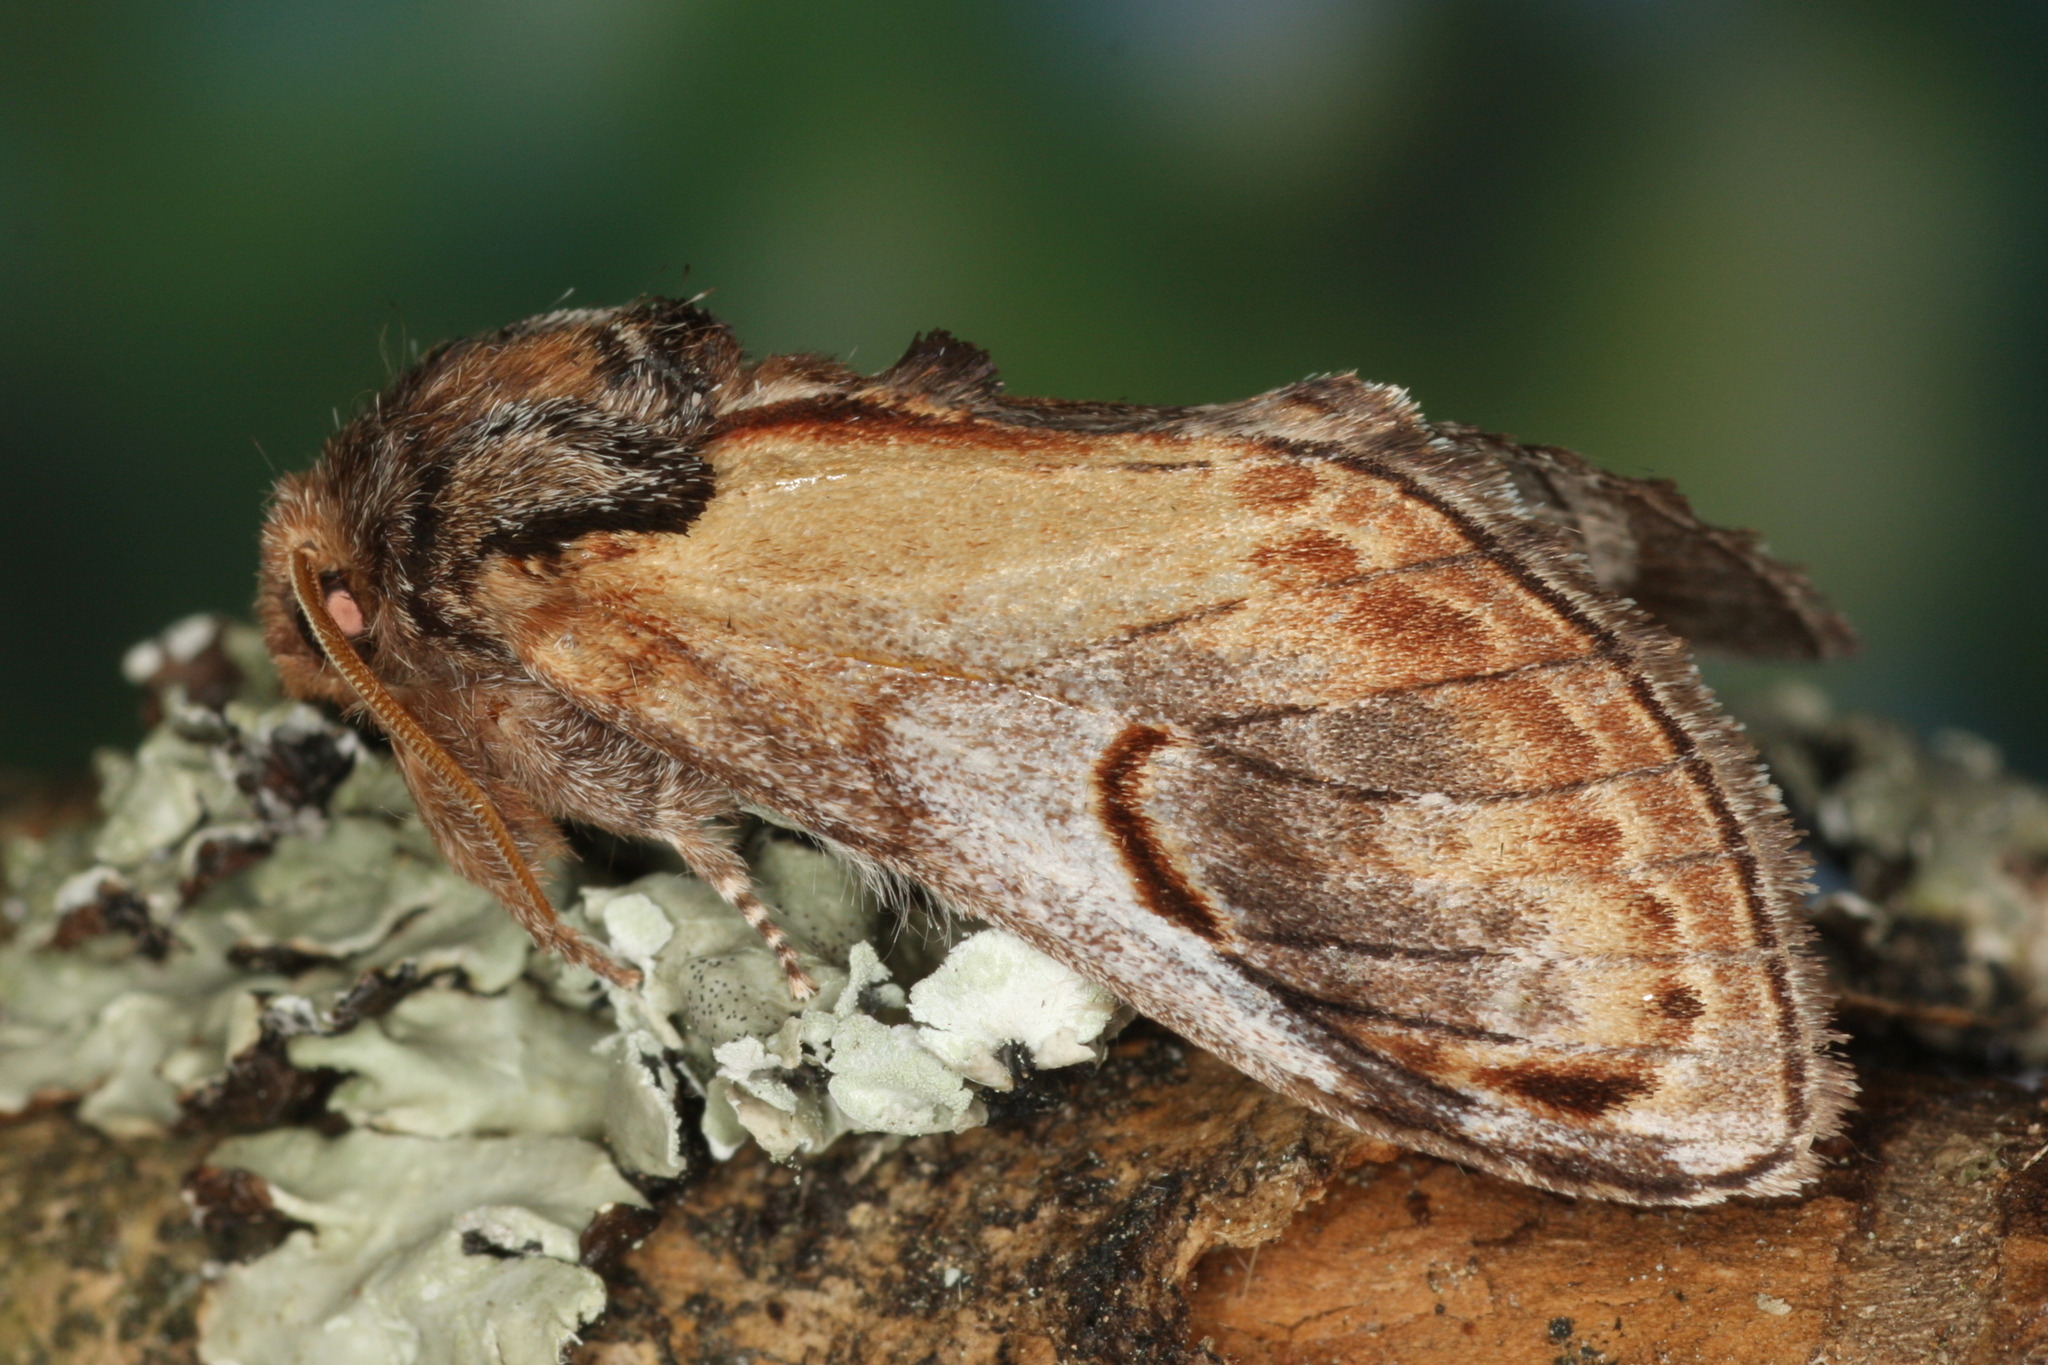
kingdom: Animalia
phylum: Arthropoda
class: Insecta
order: Lepidoptera
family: Notodontidae
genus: Notodonta
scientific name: Notodonta ziczac
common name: Pebble prominent
